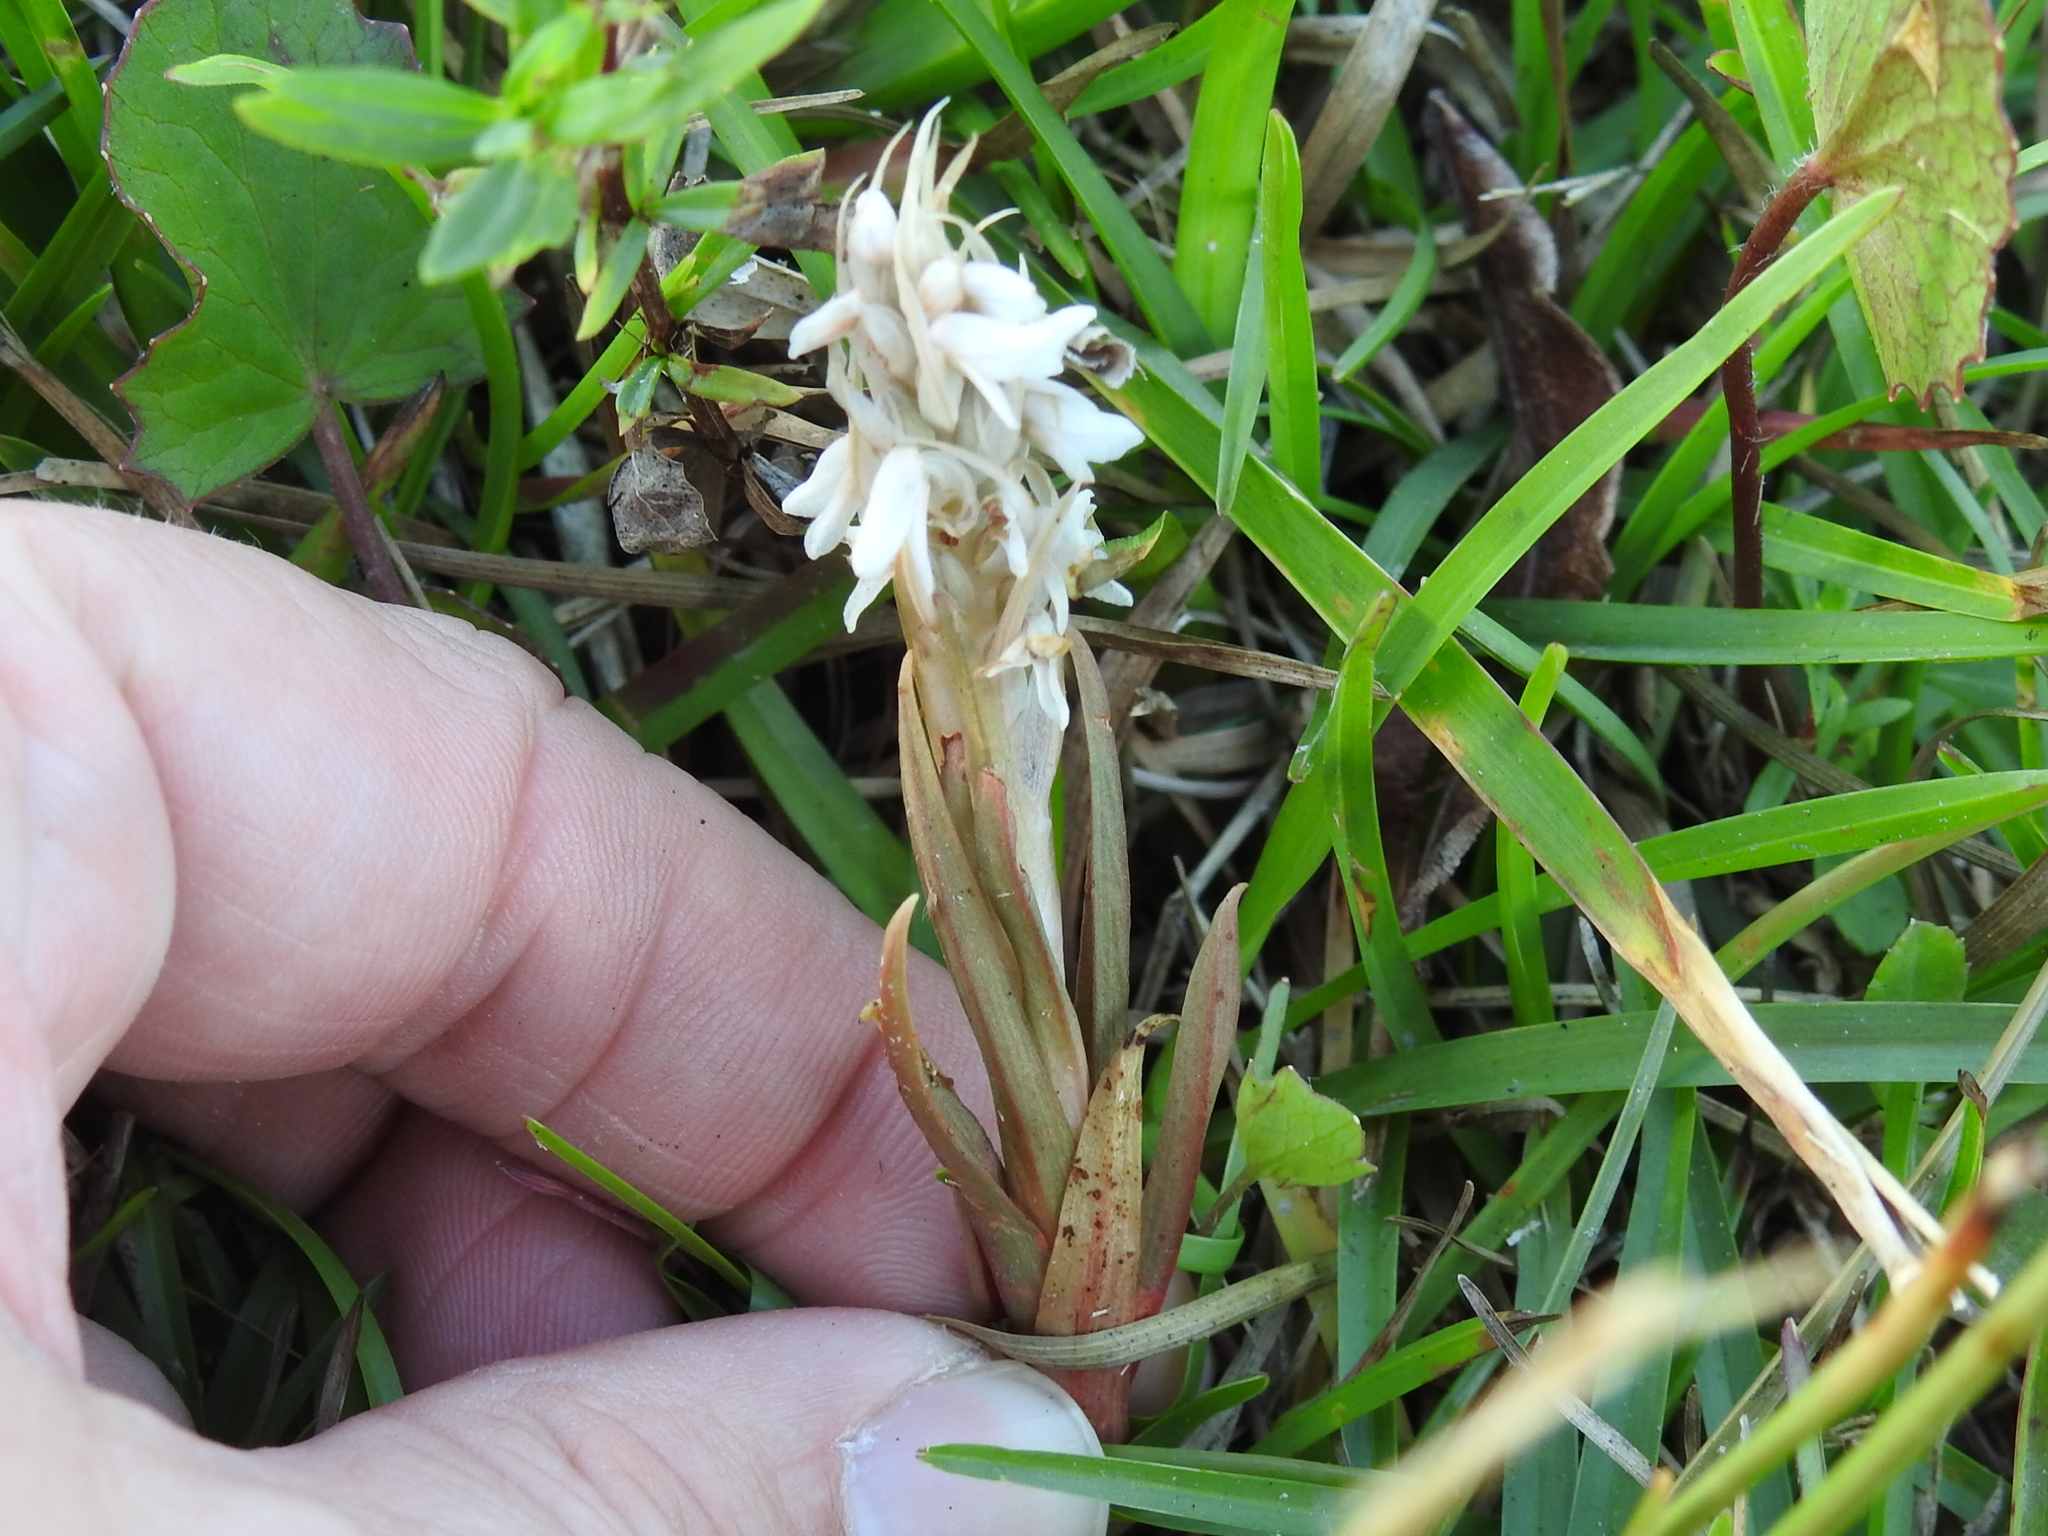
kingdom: Plantae
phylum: Tracheophyta
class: Liliopsida
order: Asparagales
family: Orchidaceae
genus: Zeuxine
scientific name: Zeuxine strateumatica
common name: Soldier's orchid
